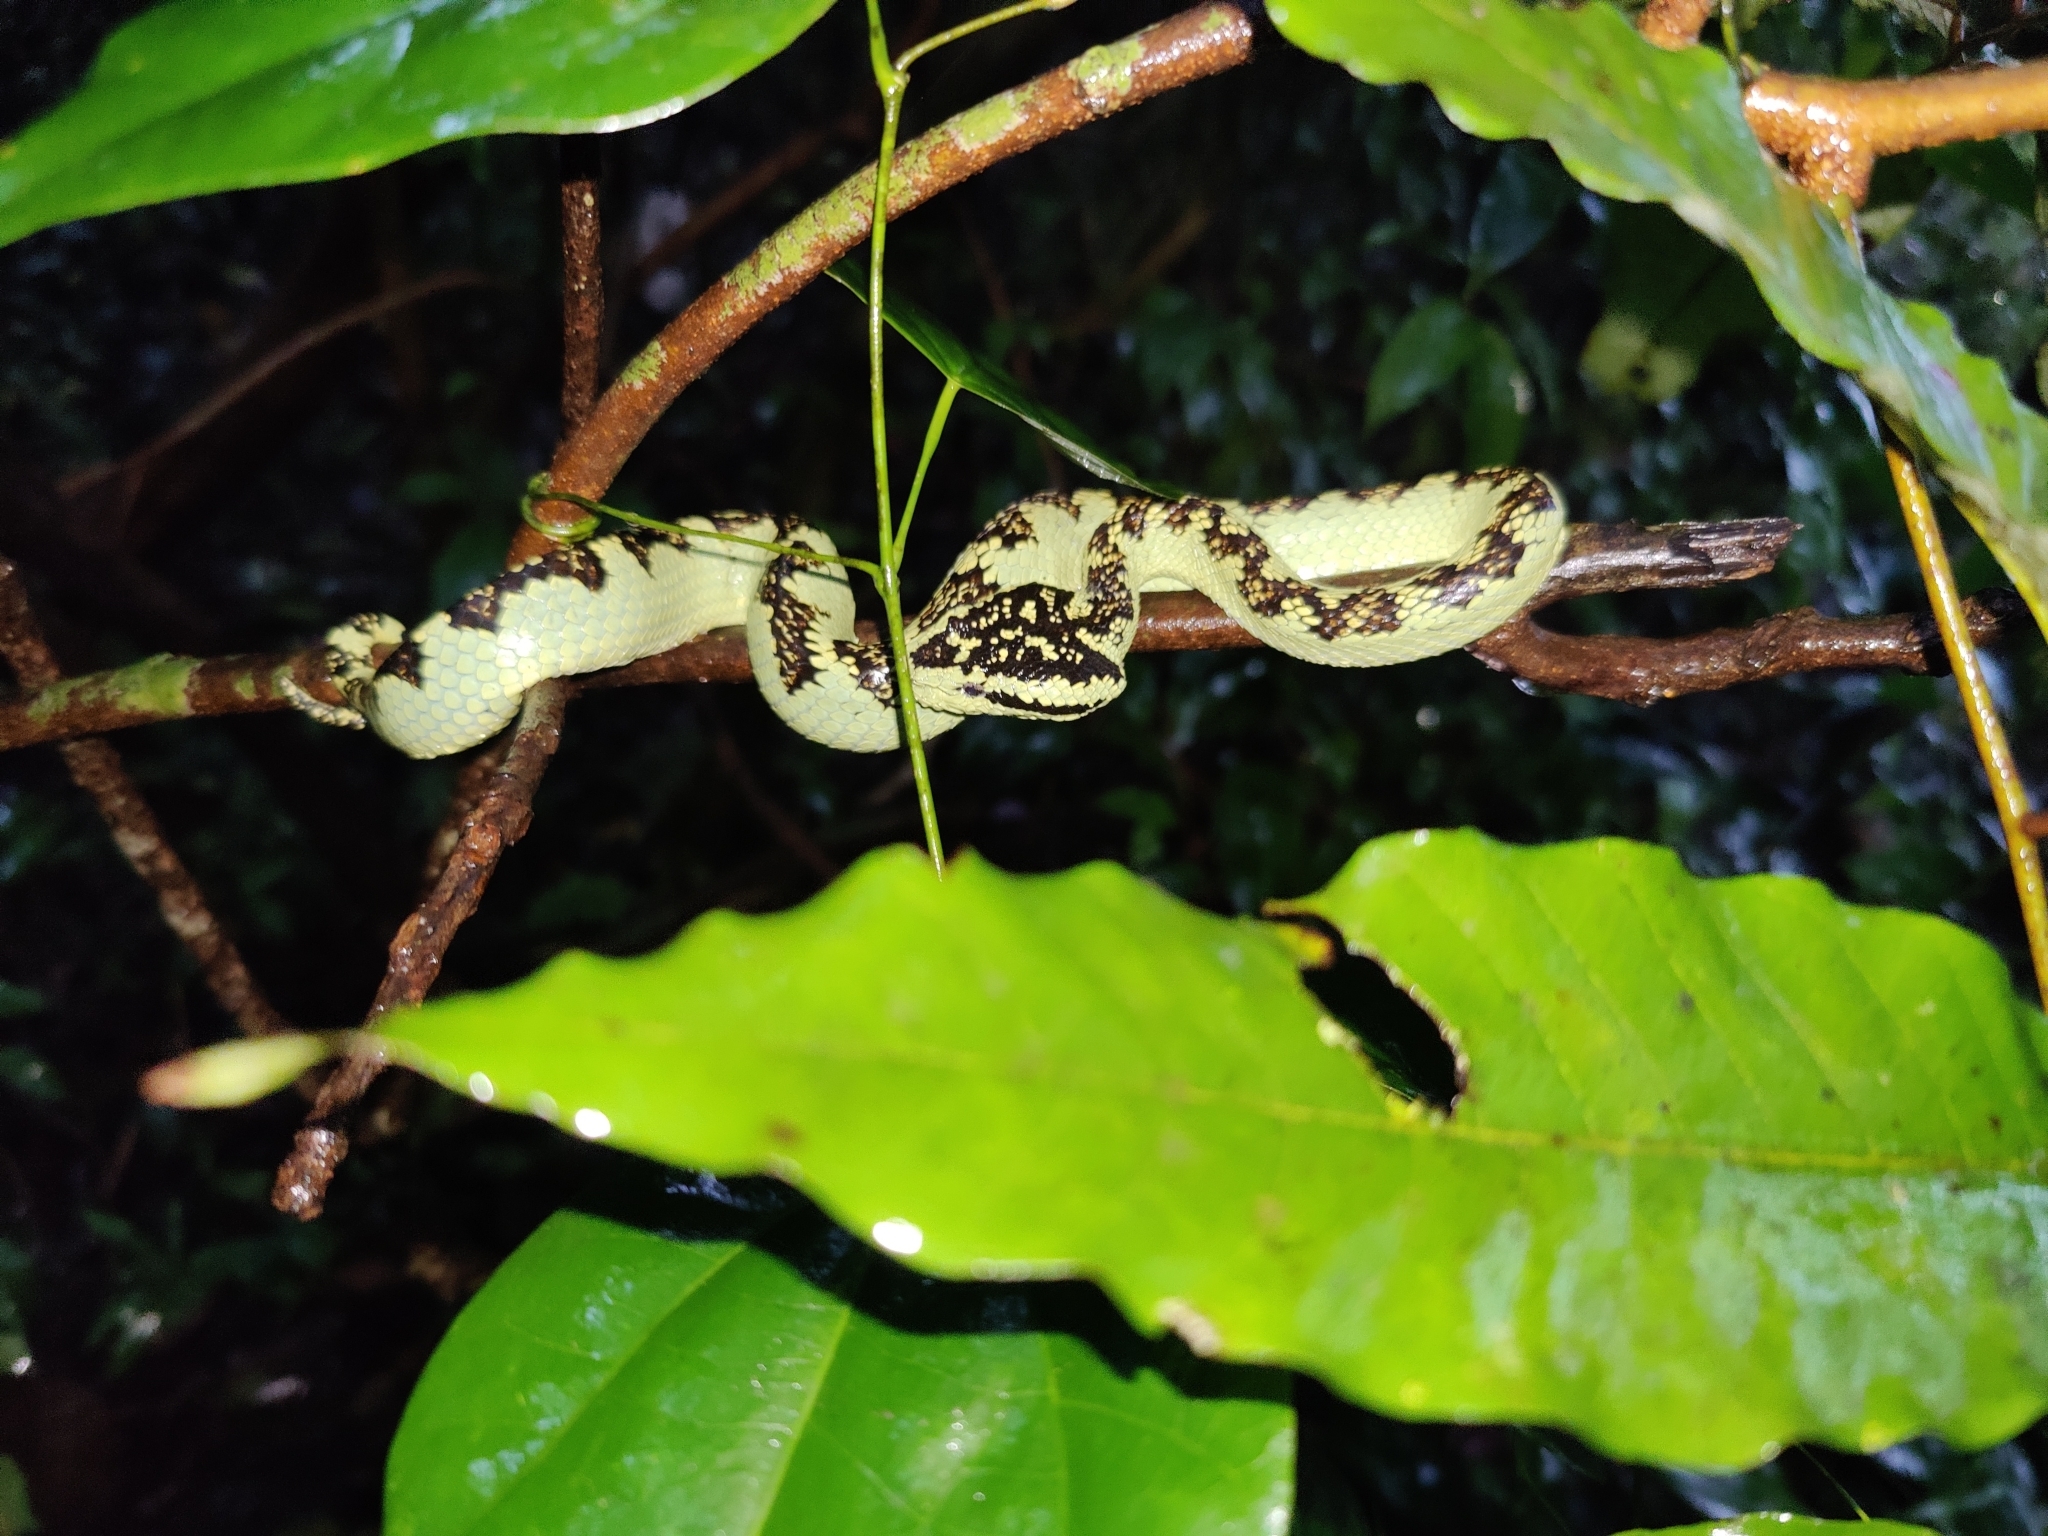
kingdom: Animalia
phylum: Chordata
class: Squamata
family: Viperidae
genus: Craspedocephalus
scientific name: Craspedocephalus malabaricus
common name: Malabarian pit viper
